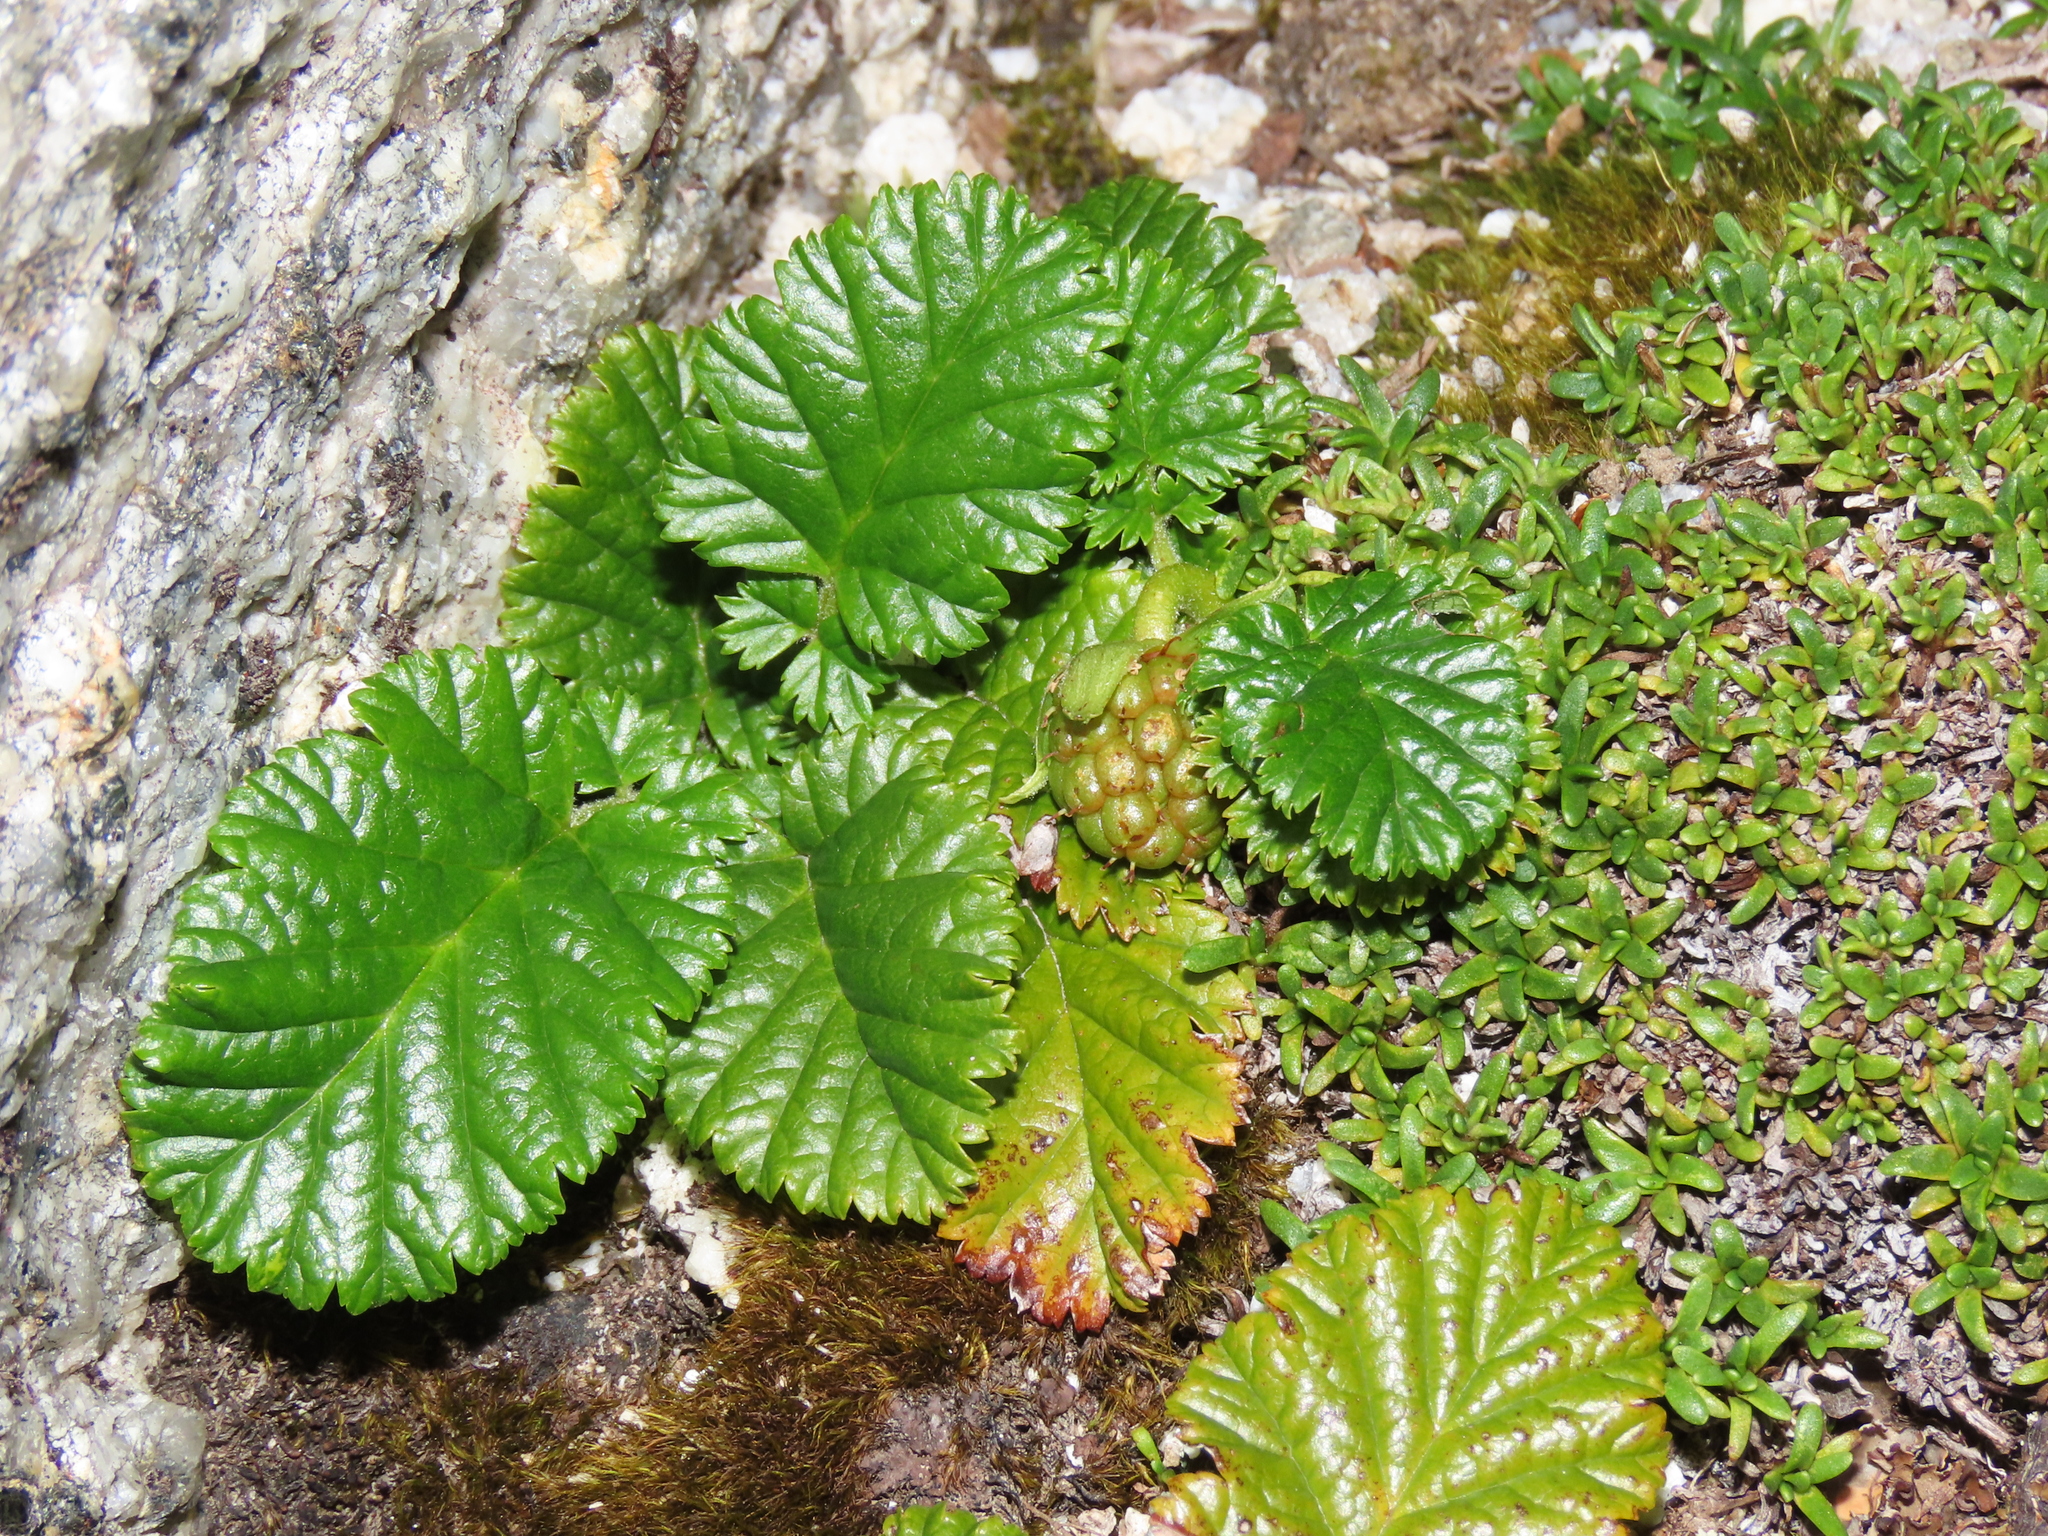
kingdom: Plantae
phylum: Tracheophyta
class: Magnoliopsida
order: Rosales
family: Rosaceae
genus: Rubus
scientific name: Rubus geoides
